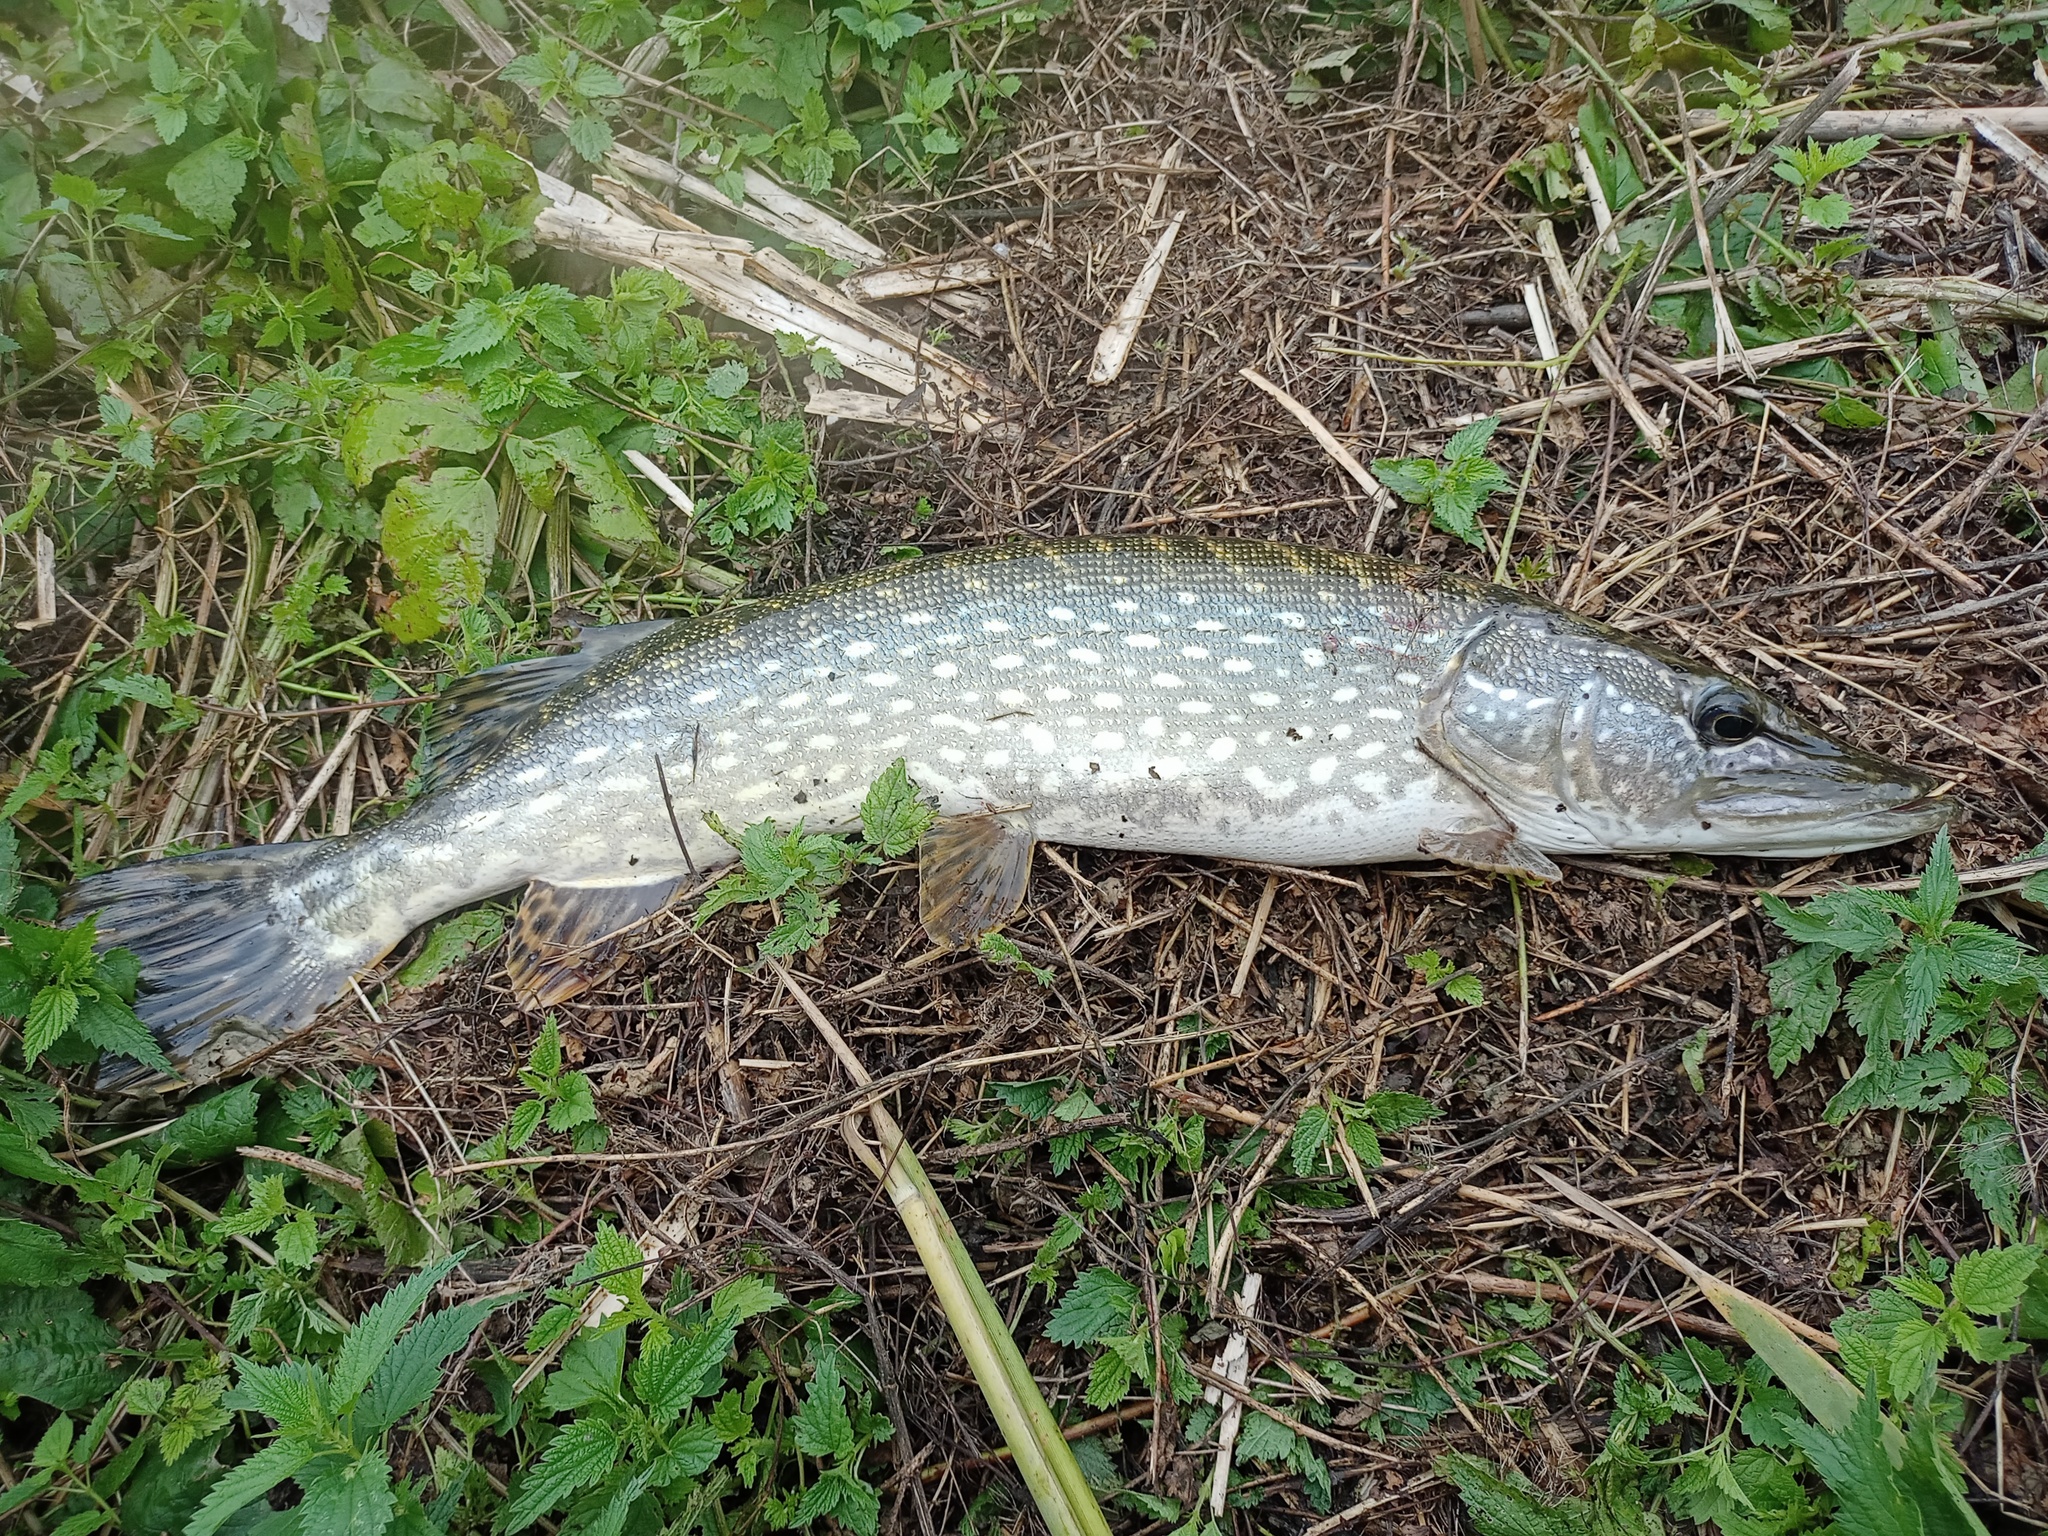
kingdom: Animalia
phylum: Chordata
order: Esociformes
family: Esocidae
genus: Esox
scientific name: Esox lucius
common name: Northern pike
